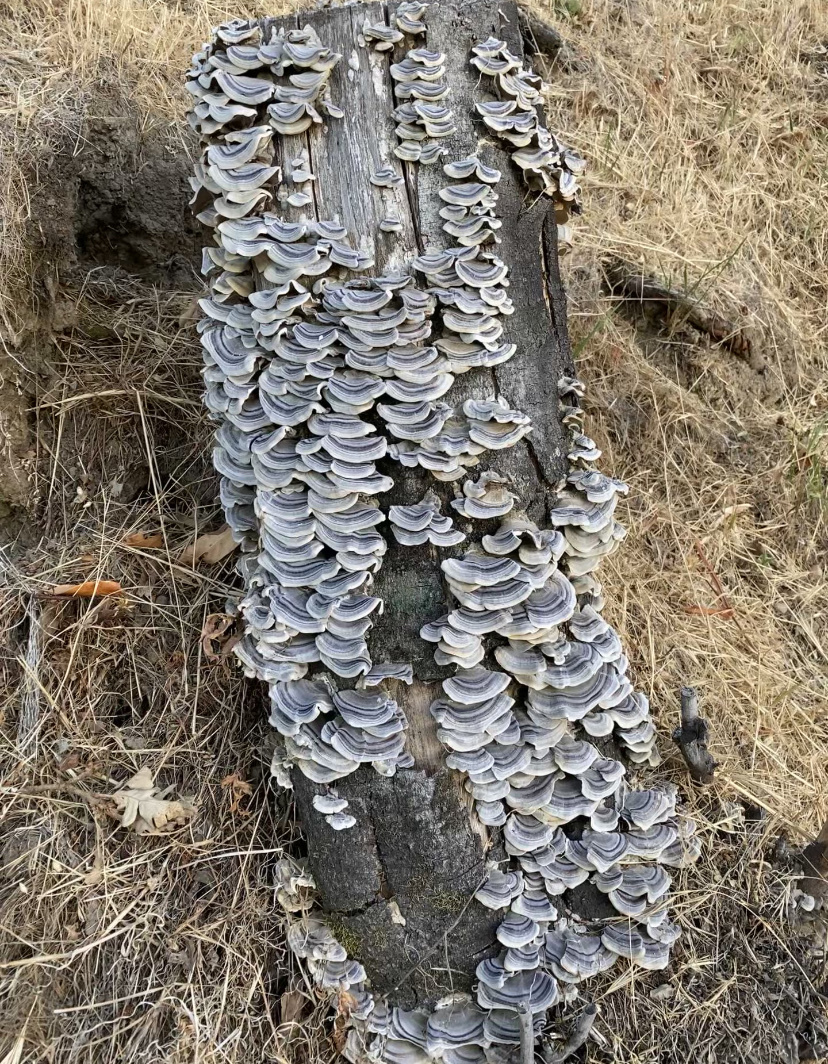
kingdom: Fungi
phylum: Basidiomycota
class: Agaricomycetes
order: Polyporales
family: Polyporaceae
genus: Trametes
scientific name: Trametes versicolor
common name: Turkeytail
